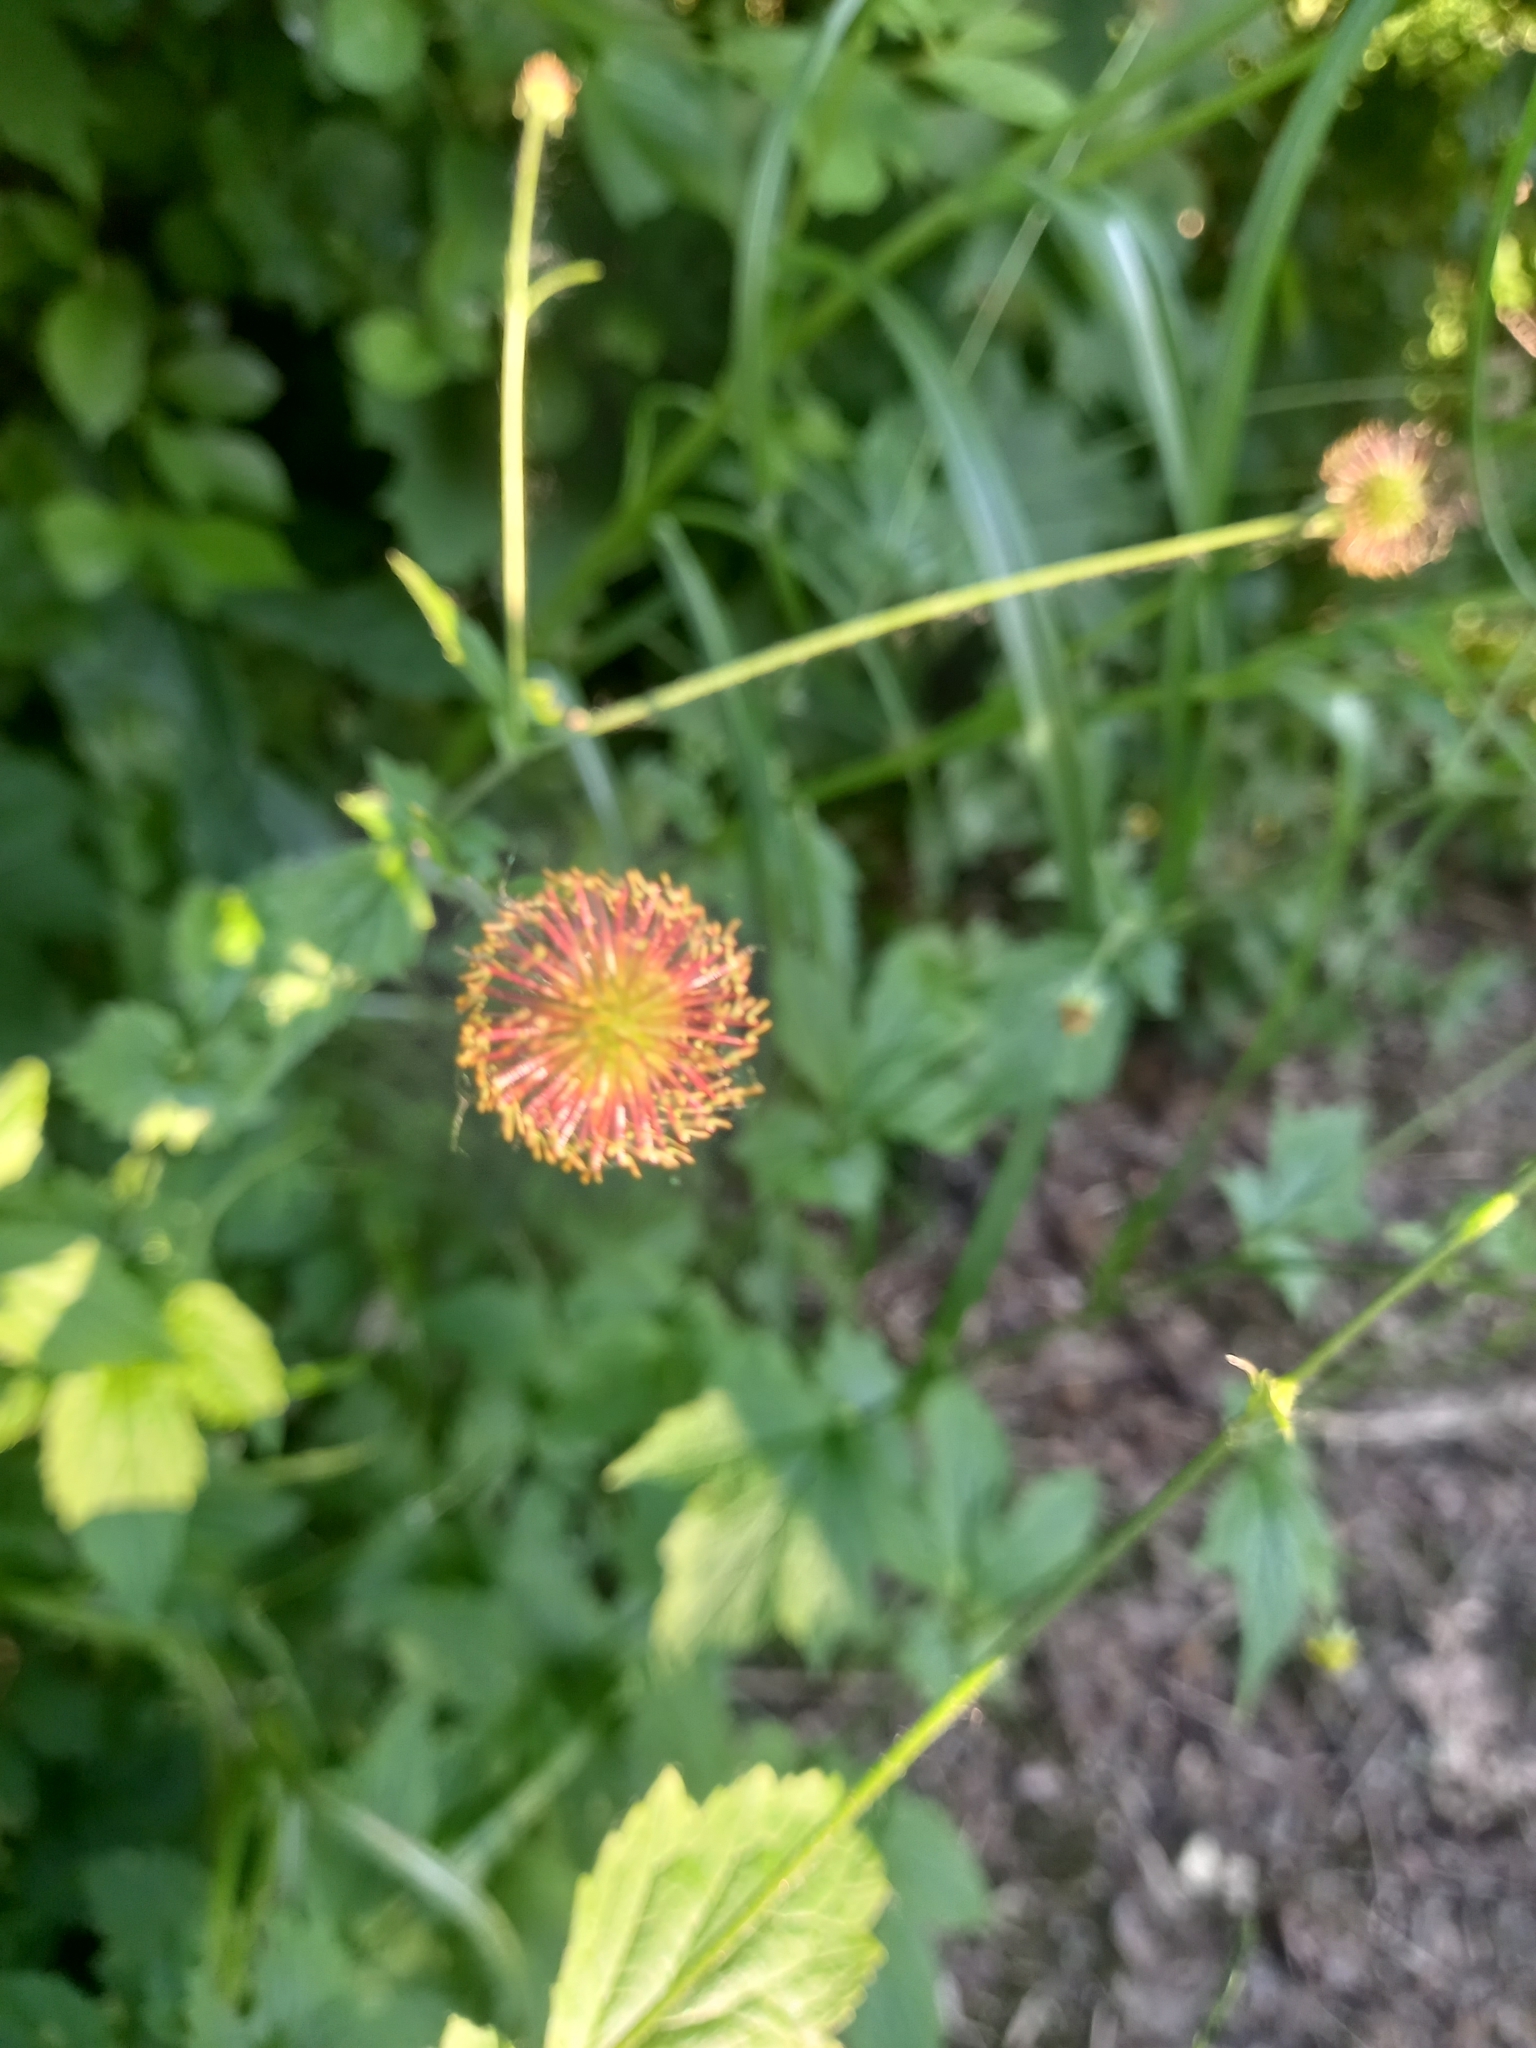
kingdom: Plantae
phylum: Tracheophyta
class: Magnoliopsida
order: Rosales
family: Rosaceae
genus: Geum
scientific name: Geum urbanum
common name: Wood avens
